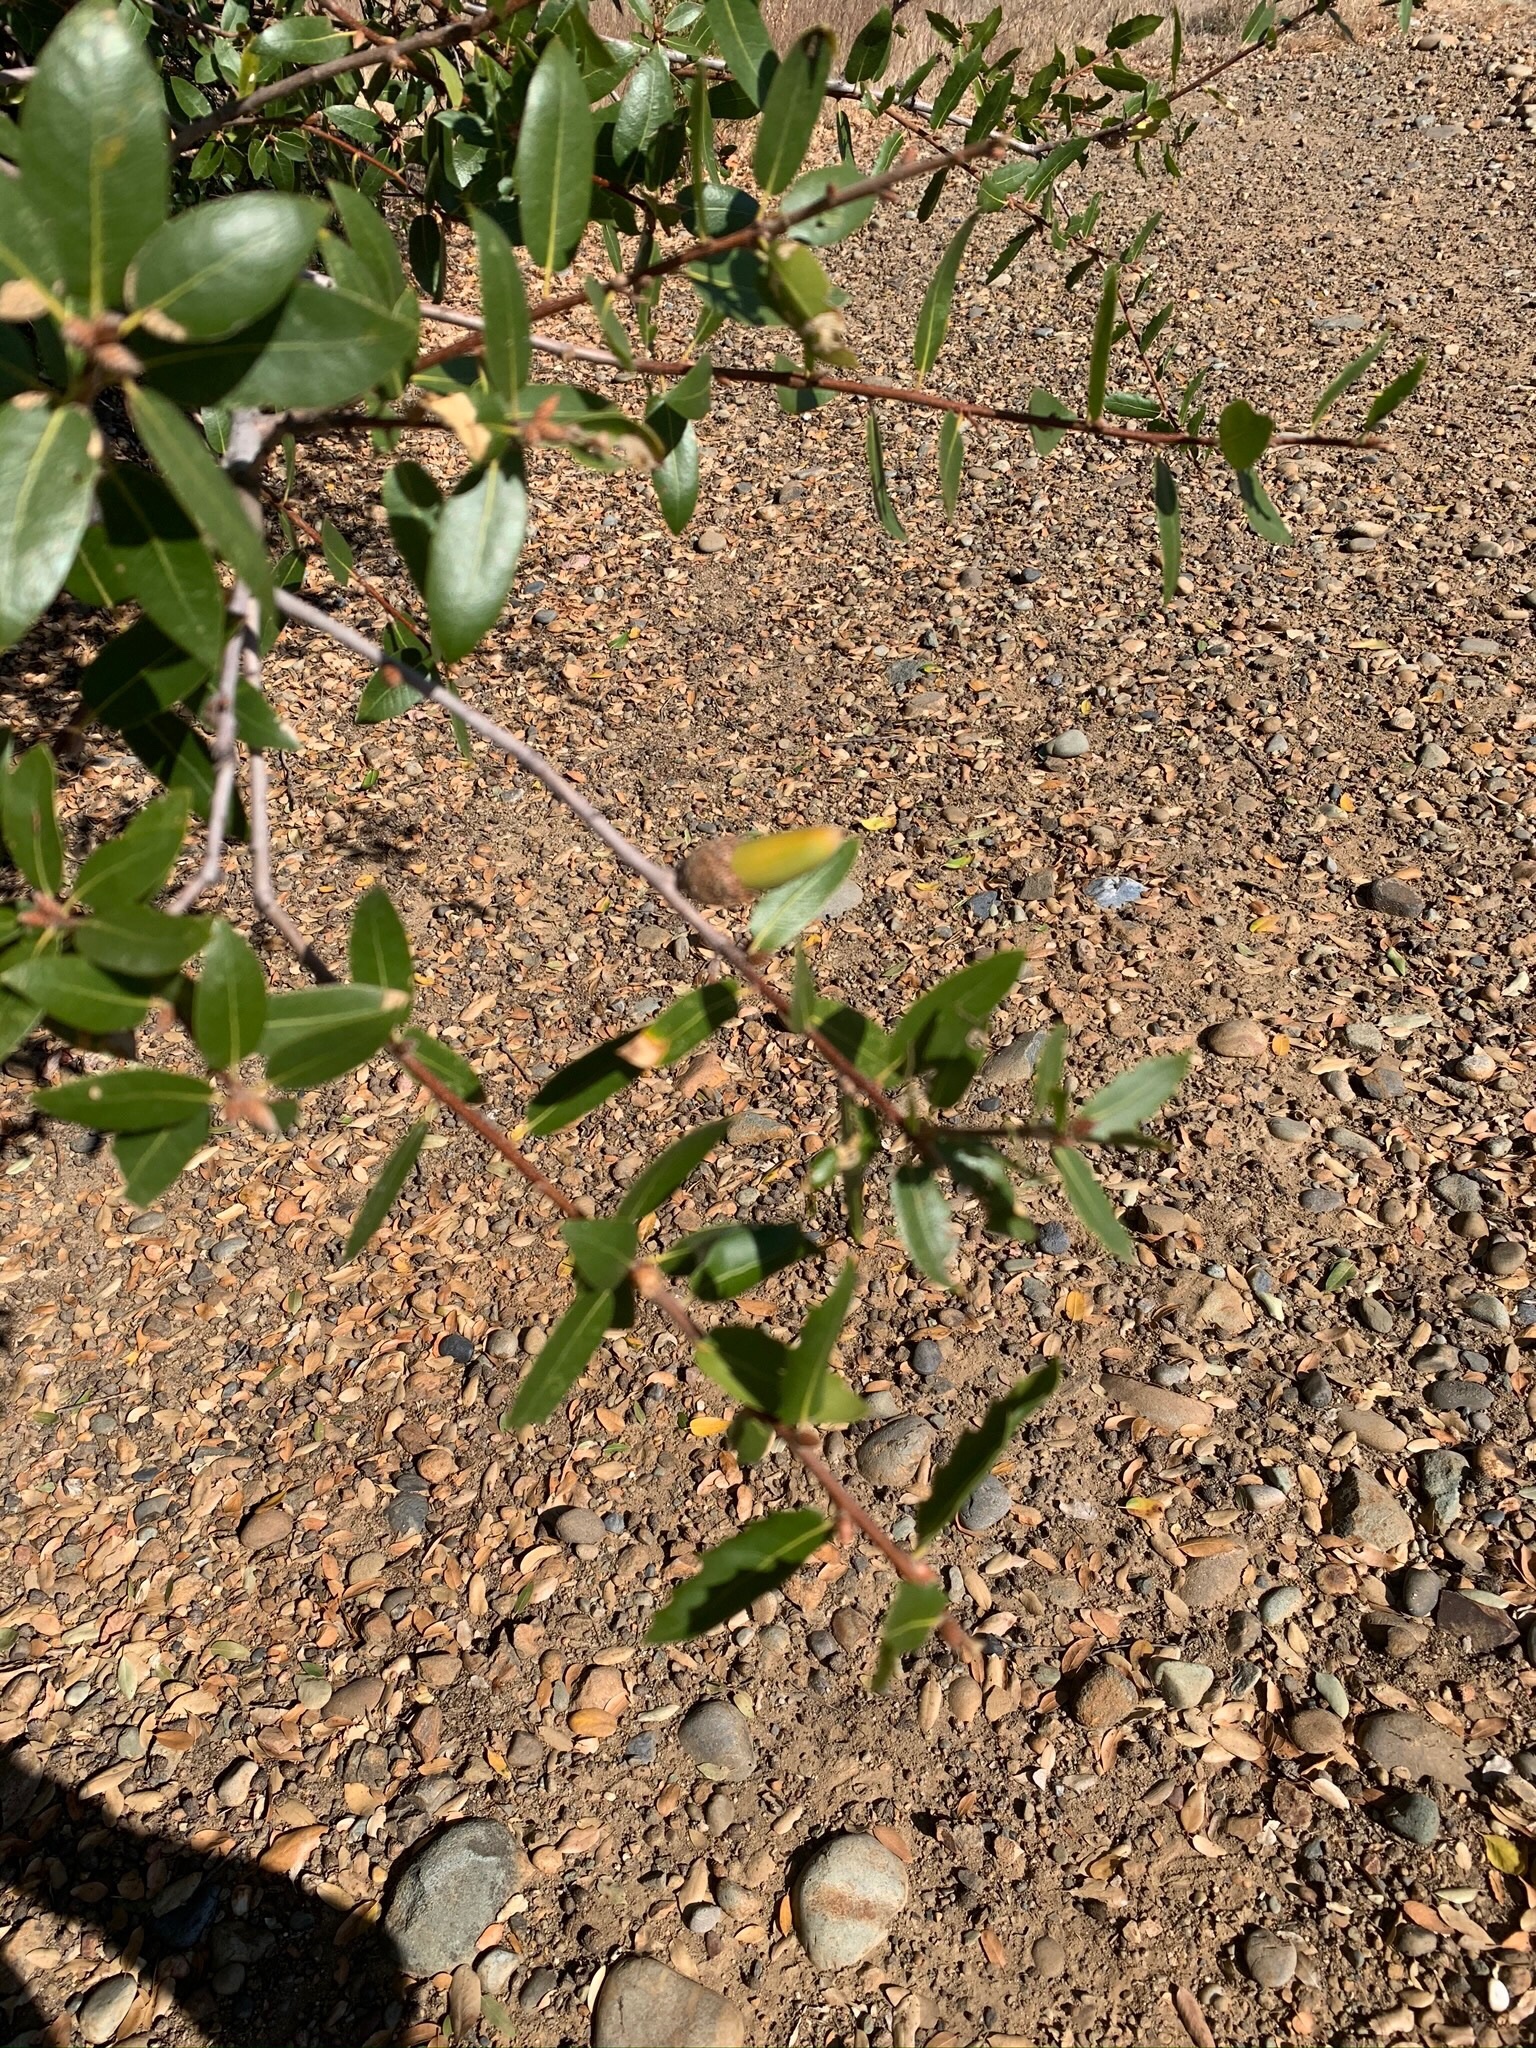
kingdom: Plantae
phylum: Tracheophyta
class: Magnoliopsida
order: Fagales
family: Fagaceae
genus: Quercus
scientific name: Quercus wislizeni
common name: Interior live oak
